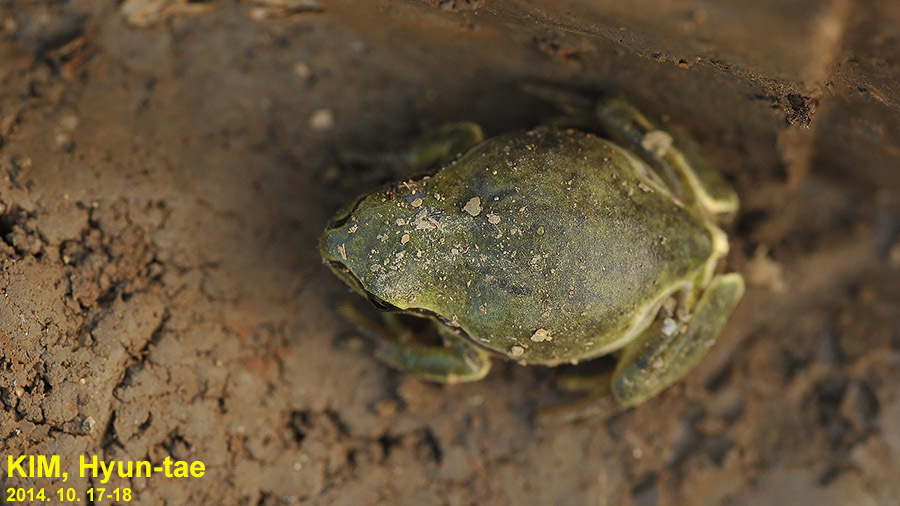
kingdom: Animalia
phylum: Chordata
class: Amphibia
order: Anura
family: Hylidae
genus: Dryophytes
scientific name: Dryophytes immaculatus
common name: North china treefrog
